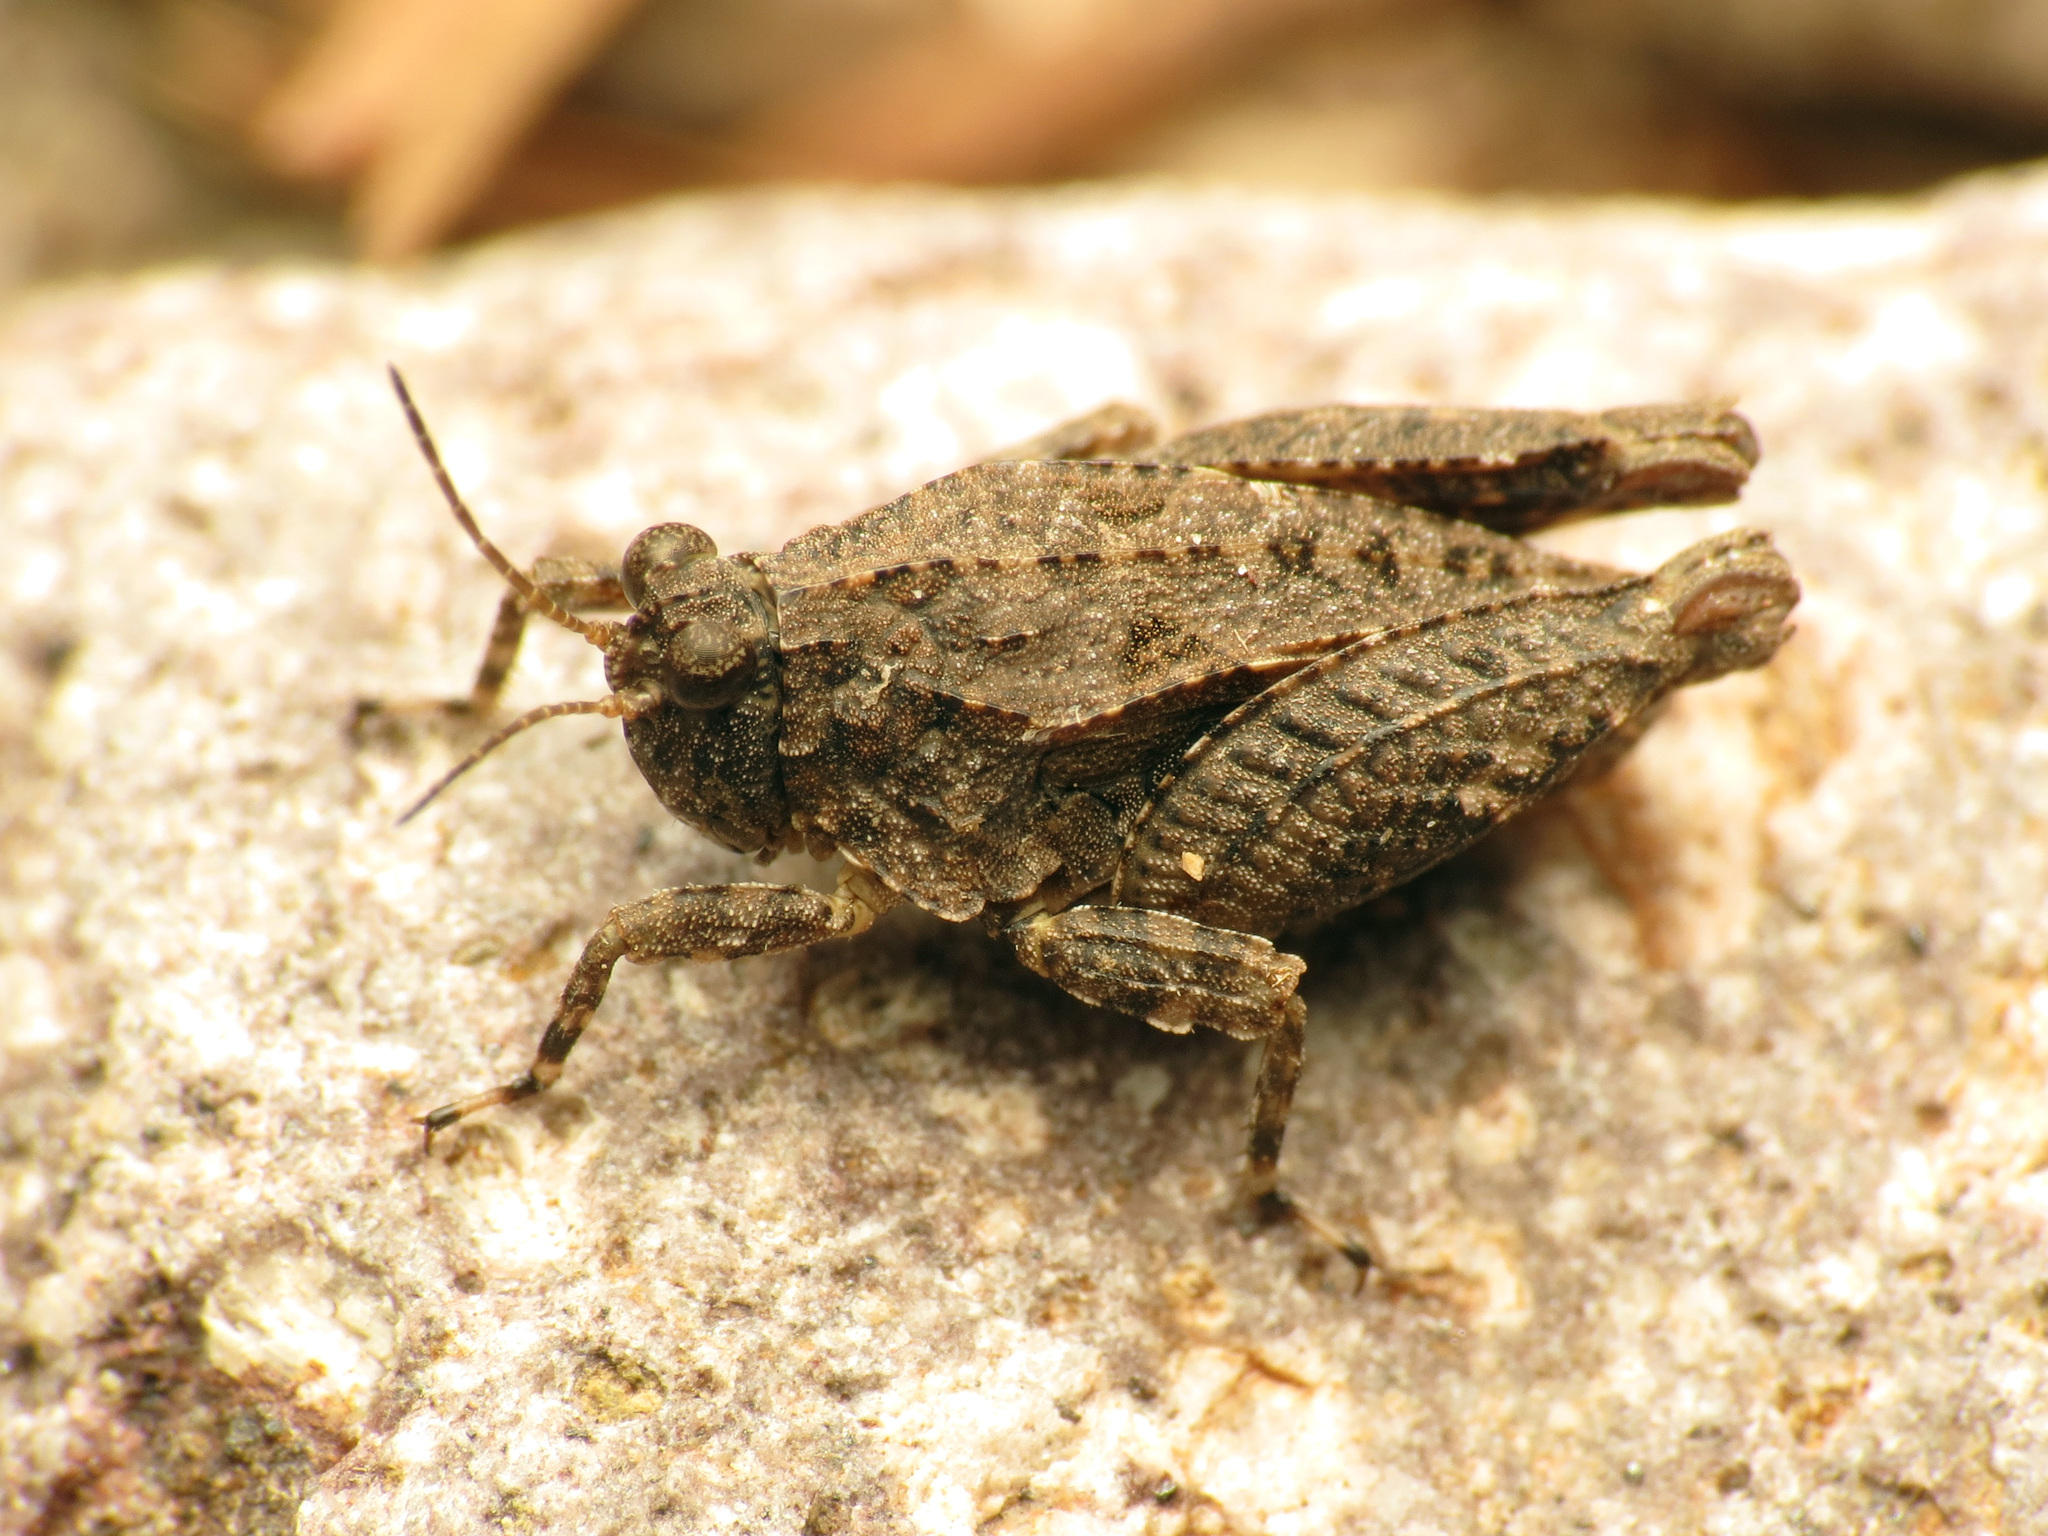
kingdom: Animalia
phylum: Arthropoda
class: Insecta
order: Orthoptera
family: Tetrigidae
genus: Paratettix
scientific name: Paratettix mexicanus
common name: Mexican pygmy grasshopper
